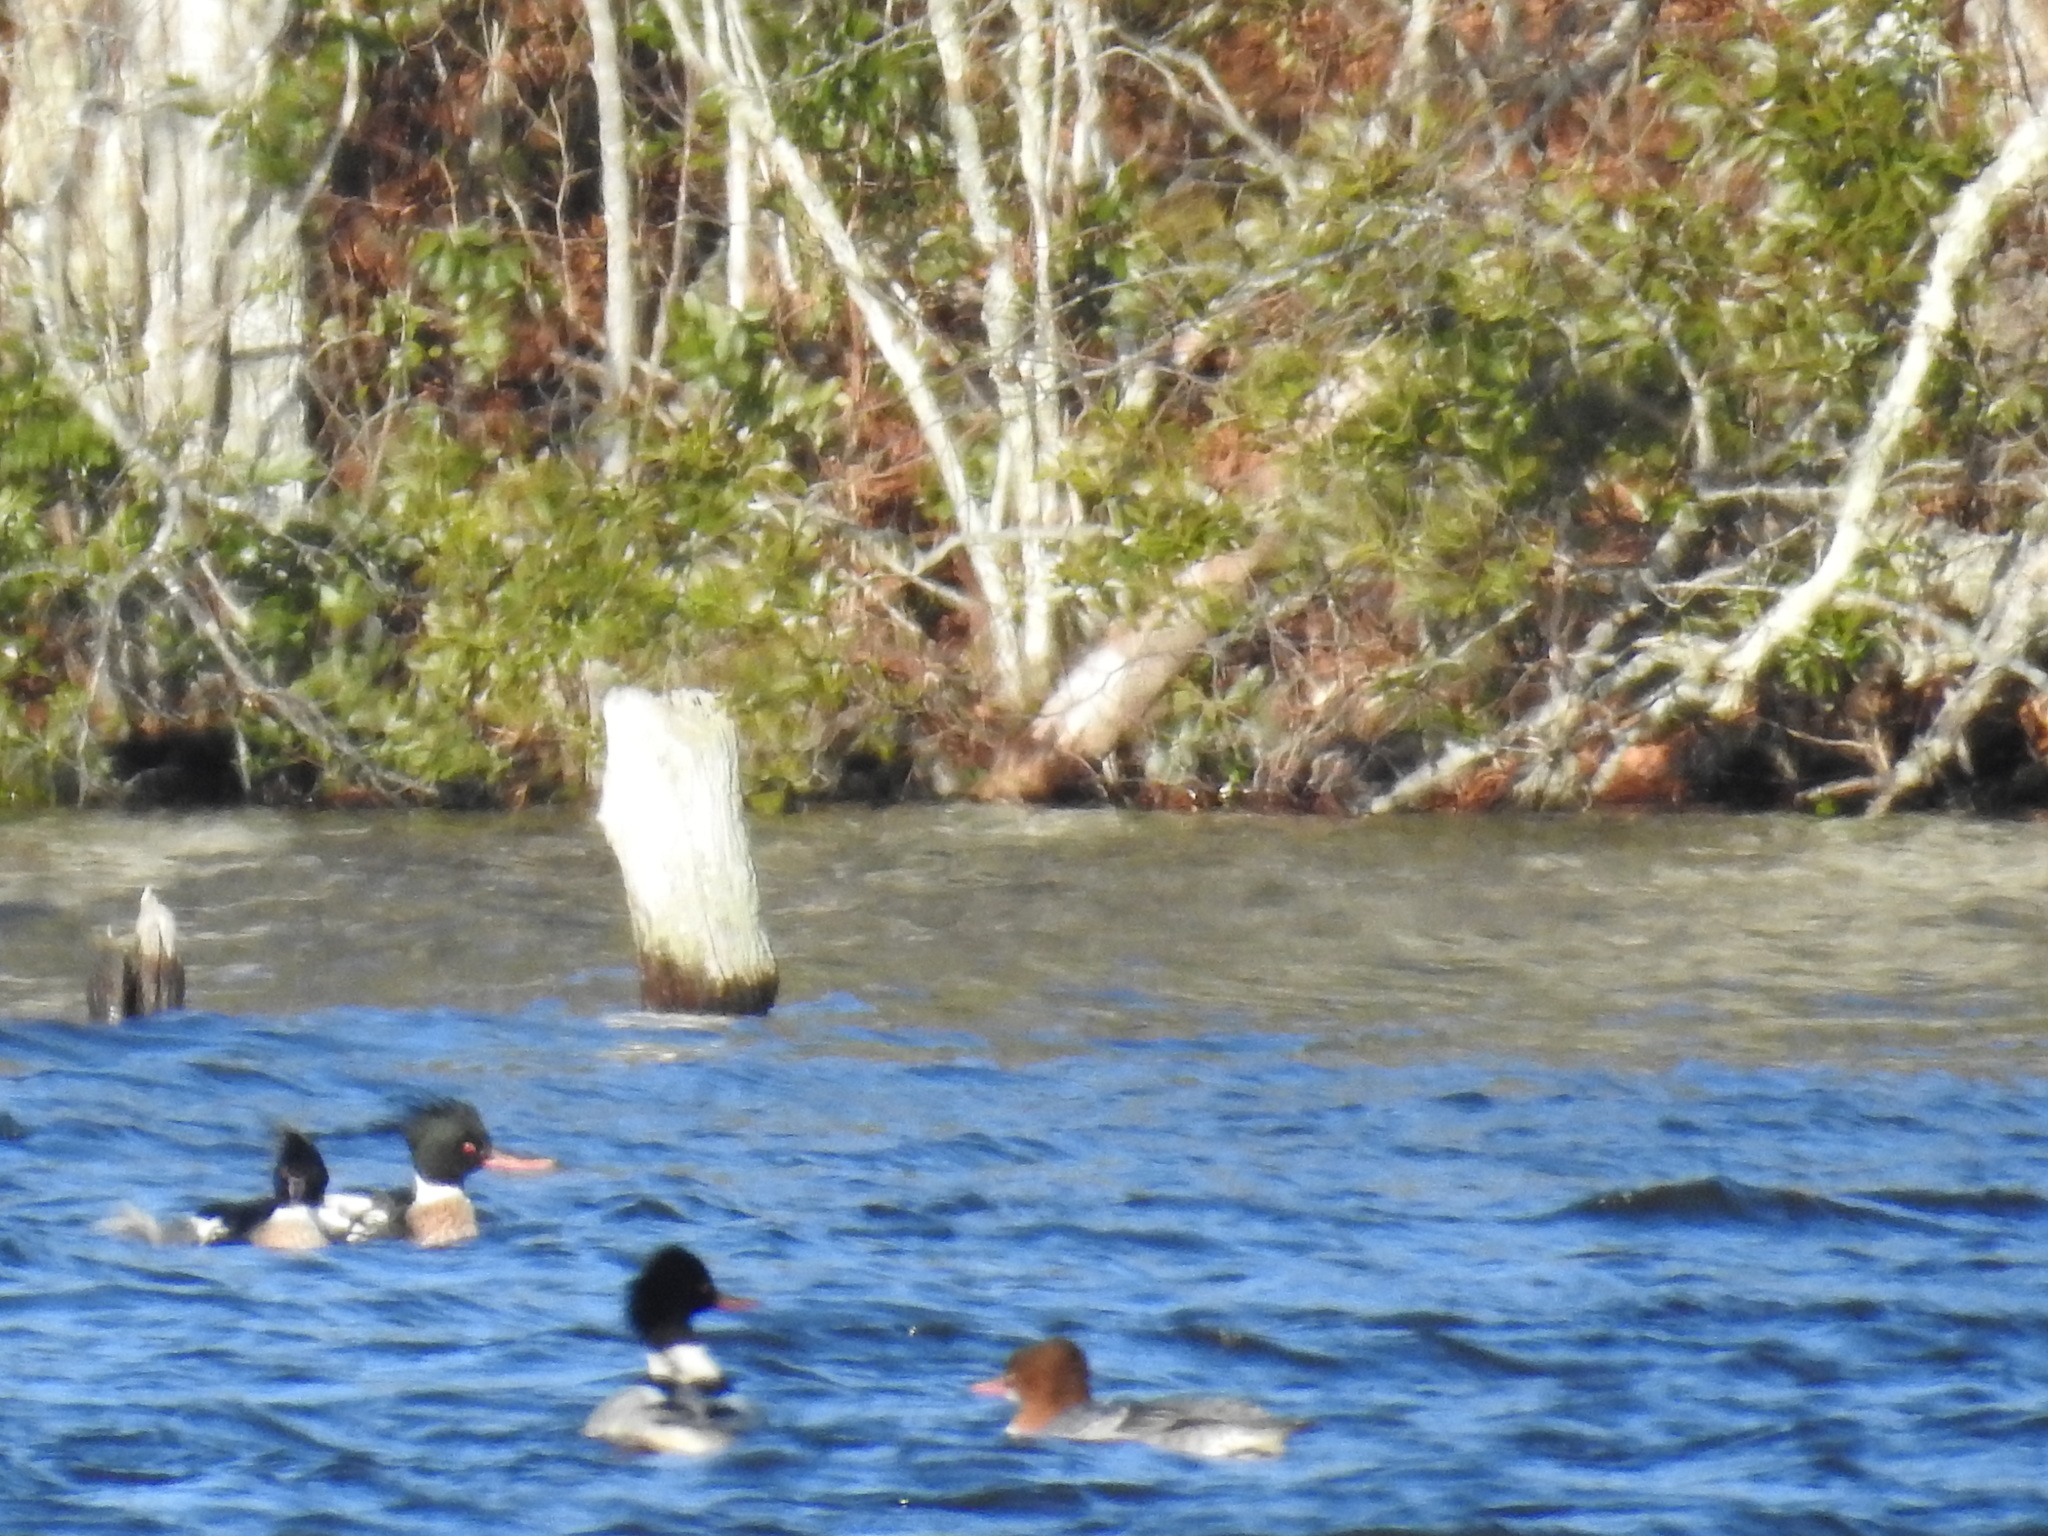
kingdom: Animalia
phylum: Chordata
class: Aves
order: Anseriformes
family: Anatidae
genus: Mergus
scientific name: Mergus serrator
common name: Red-breasted merganser
